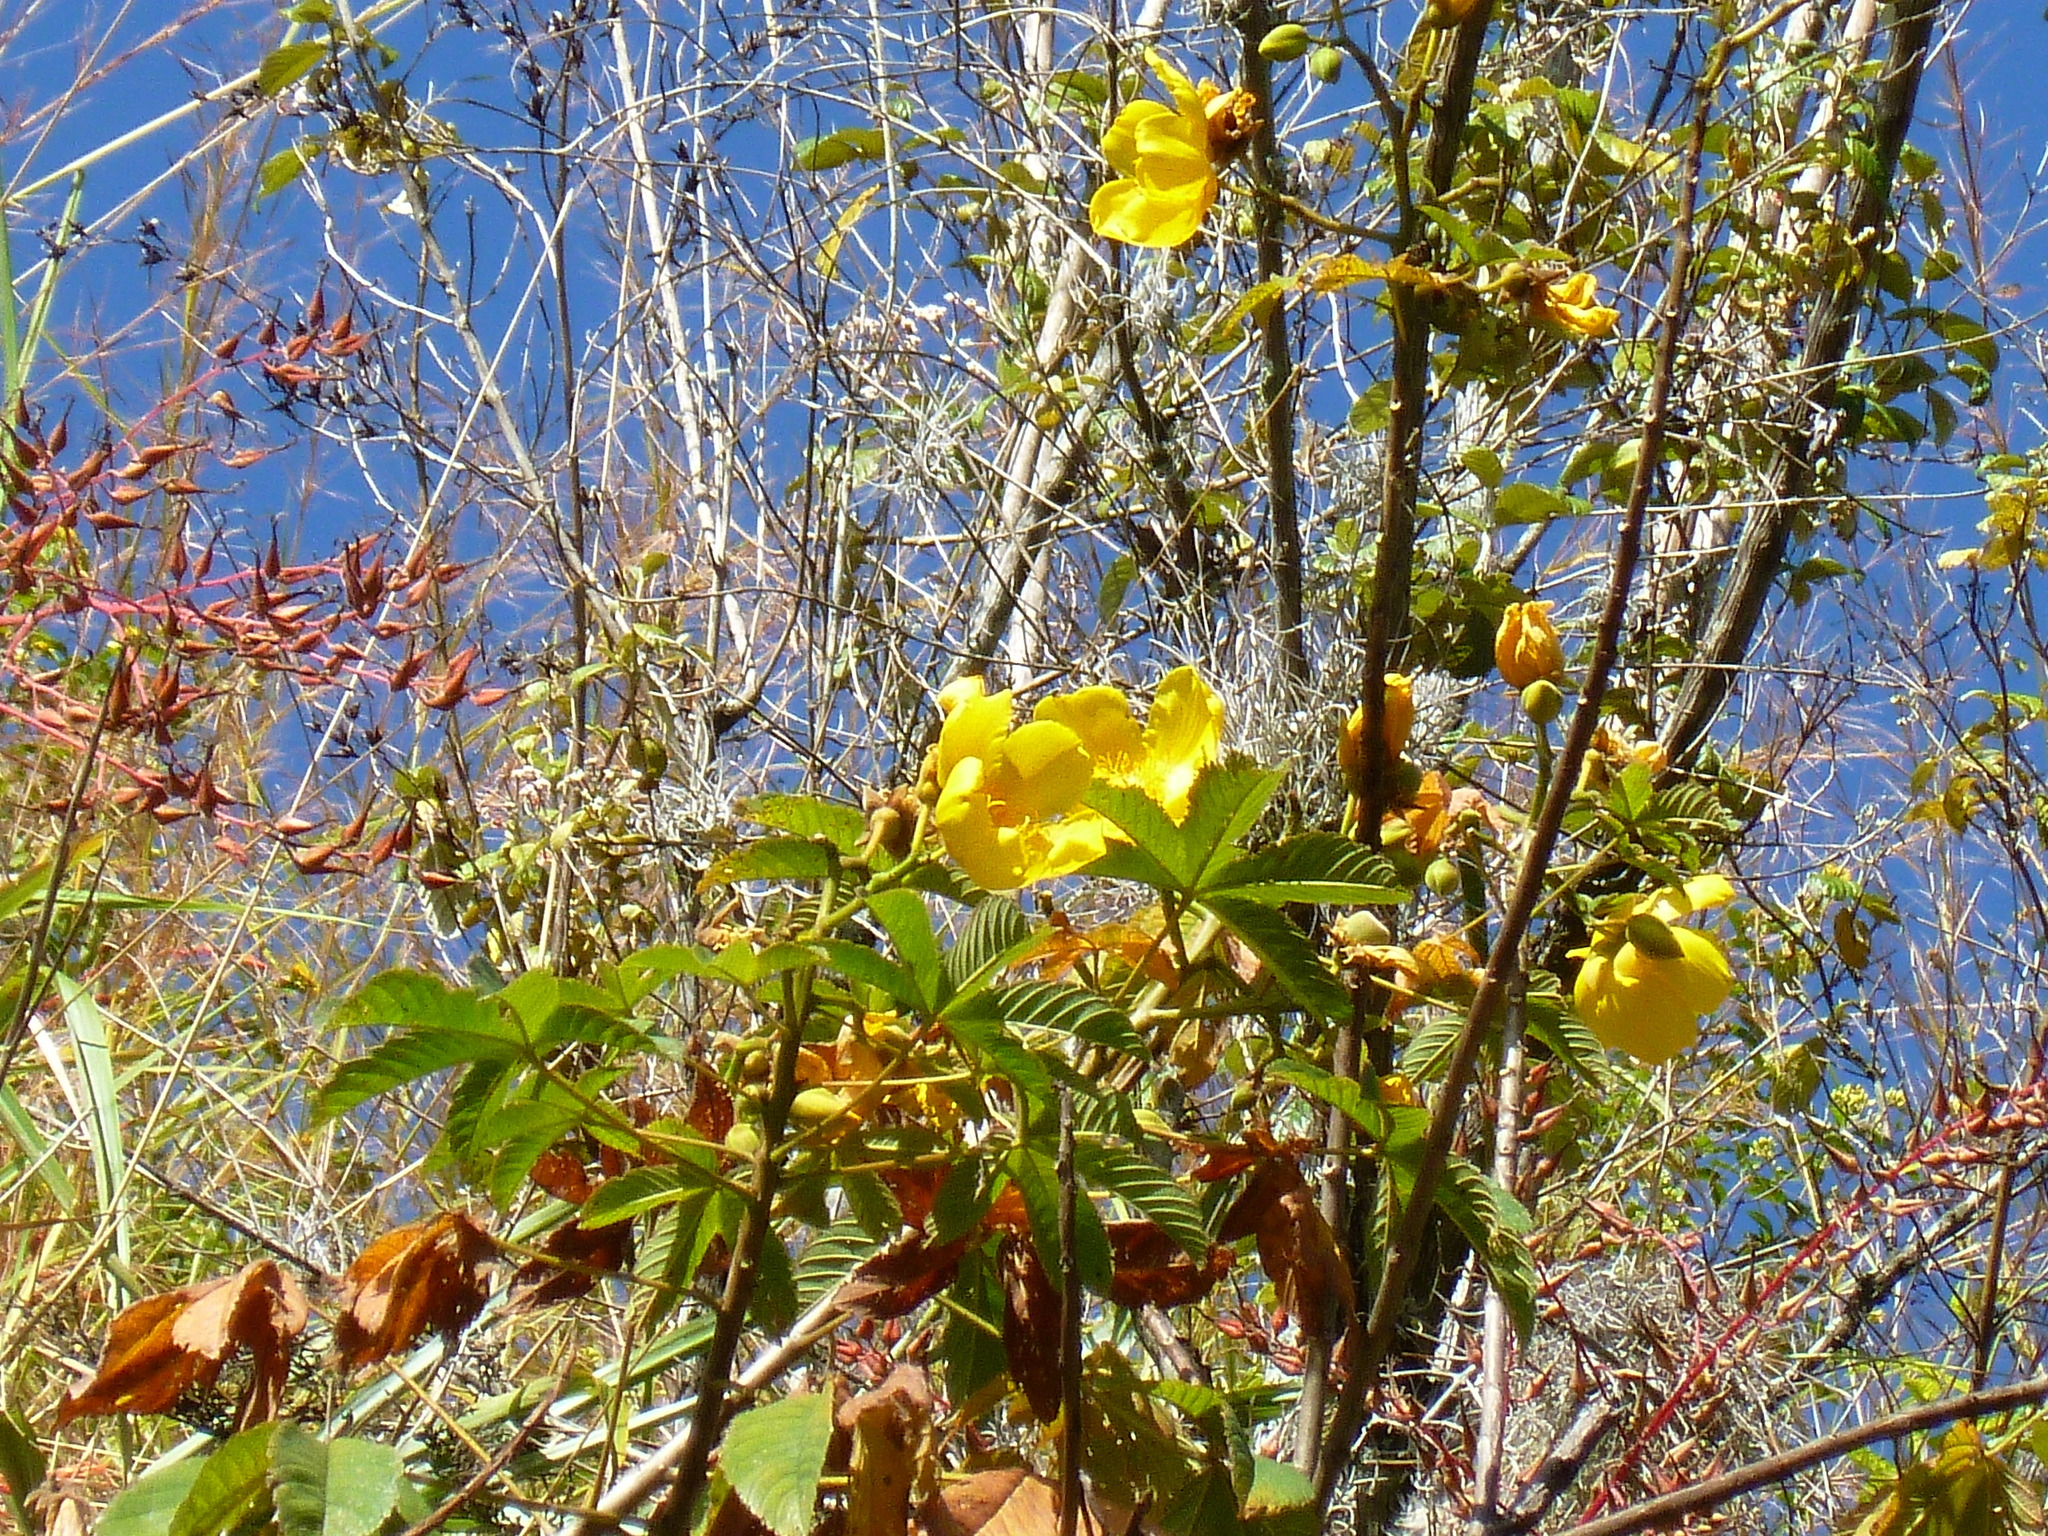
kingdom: Plantae
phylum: Tracheophyta
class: Magnoliopsida
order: Malvales
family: Cochlospermaceae
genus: Cochlospermum
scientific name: Cochlospermum vitifolium
